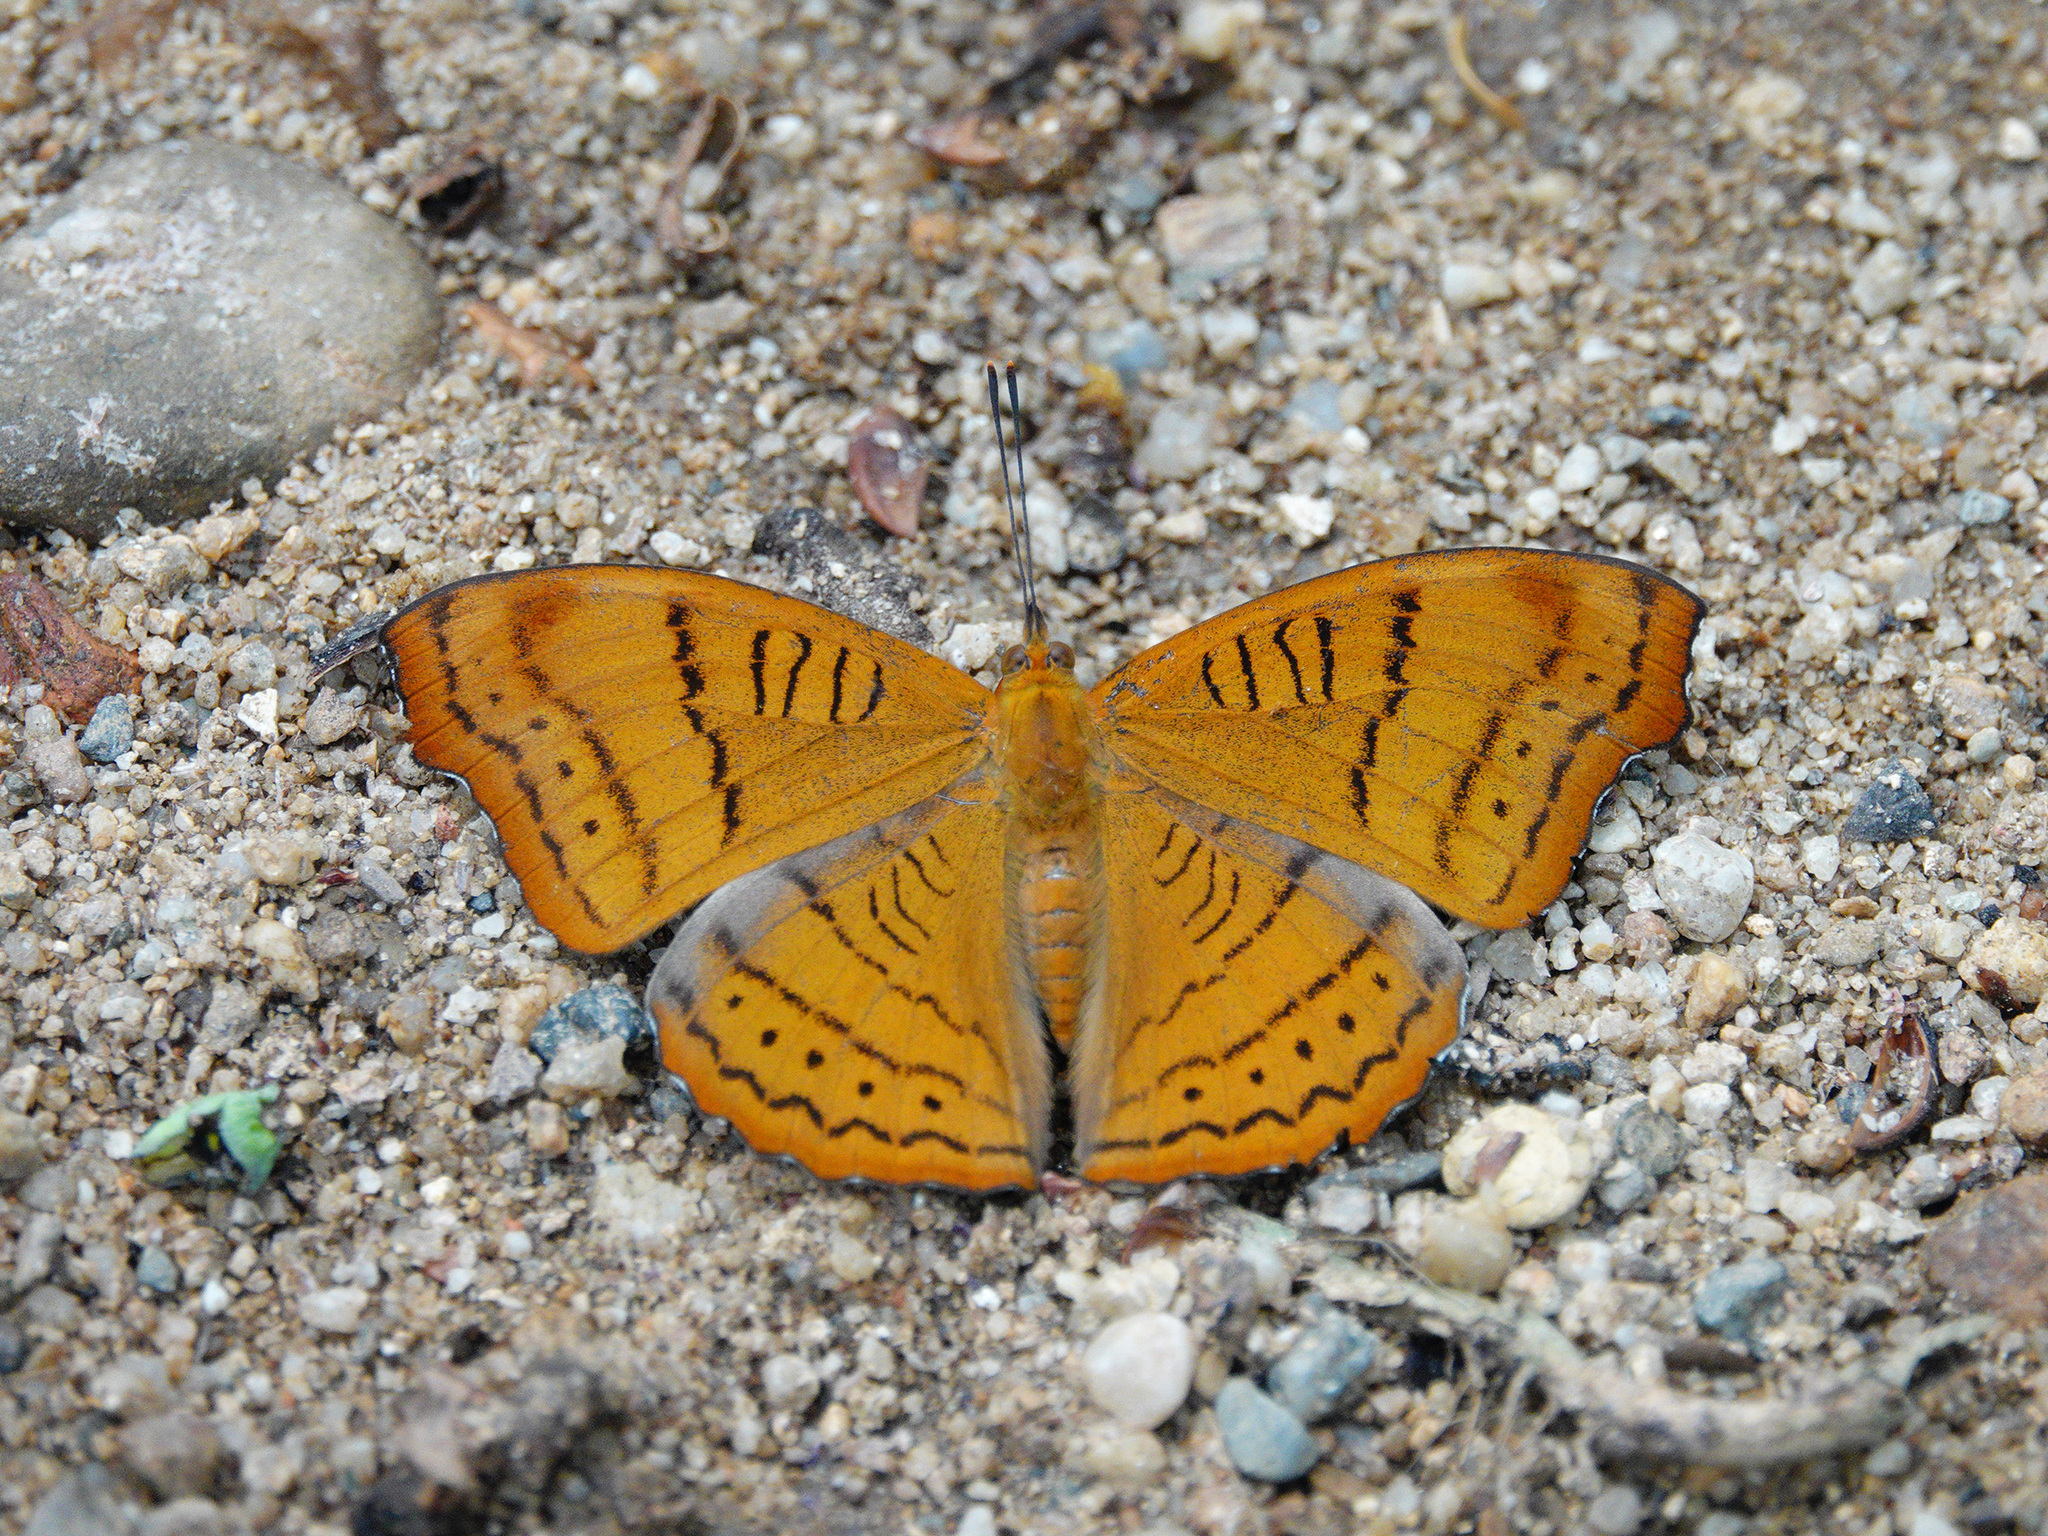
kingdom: Animalia
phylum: Arthropoda
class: Insecta
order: Lepidoptera
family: Nymphalidae
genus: Pseudergolis
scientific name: Pseudergolis wedah
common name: Tabby
